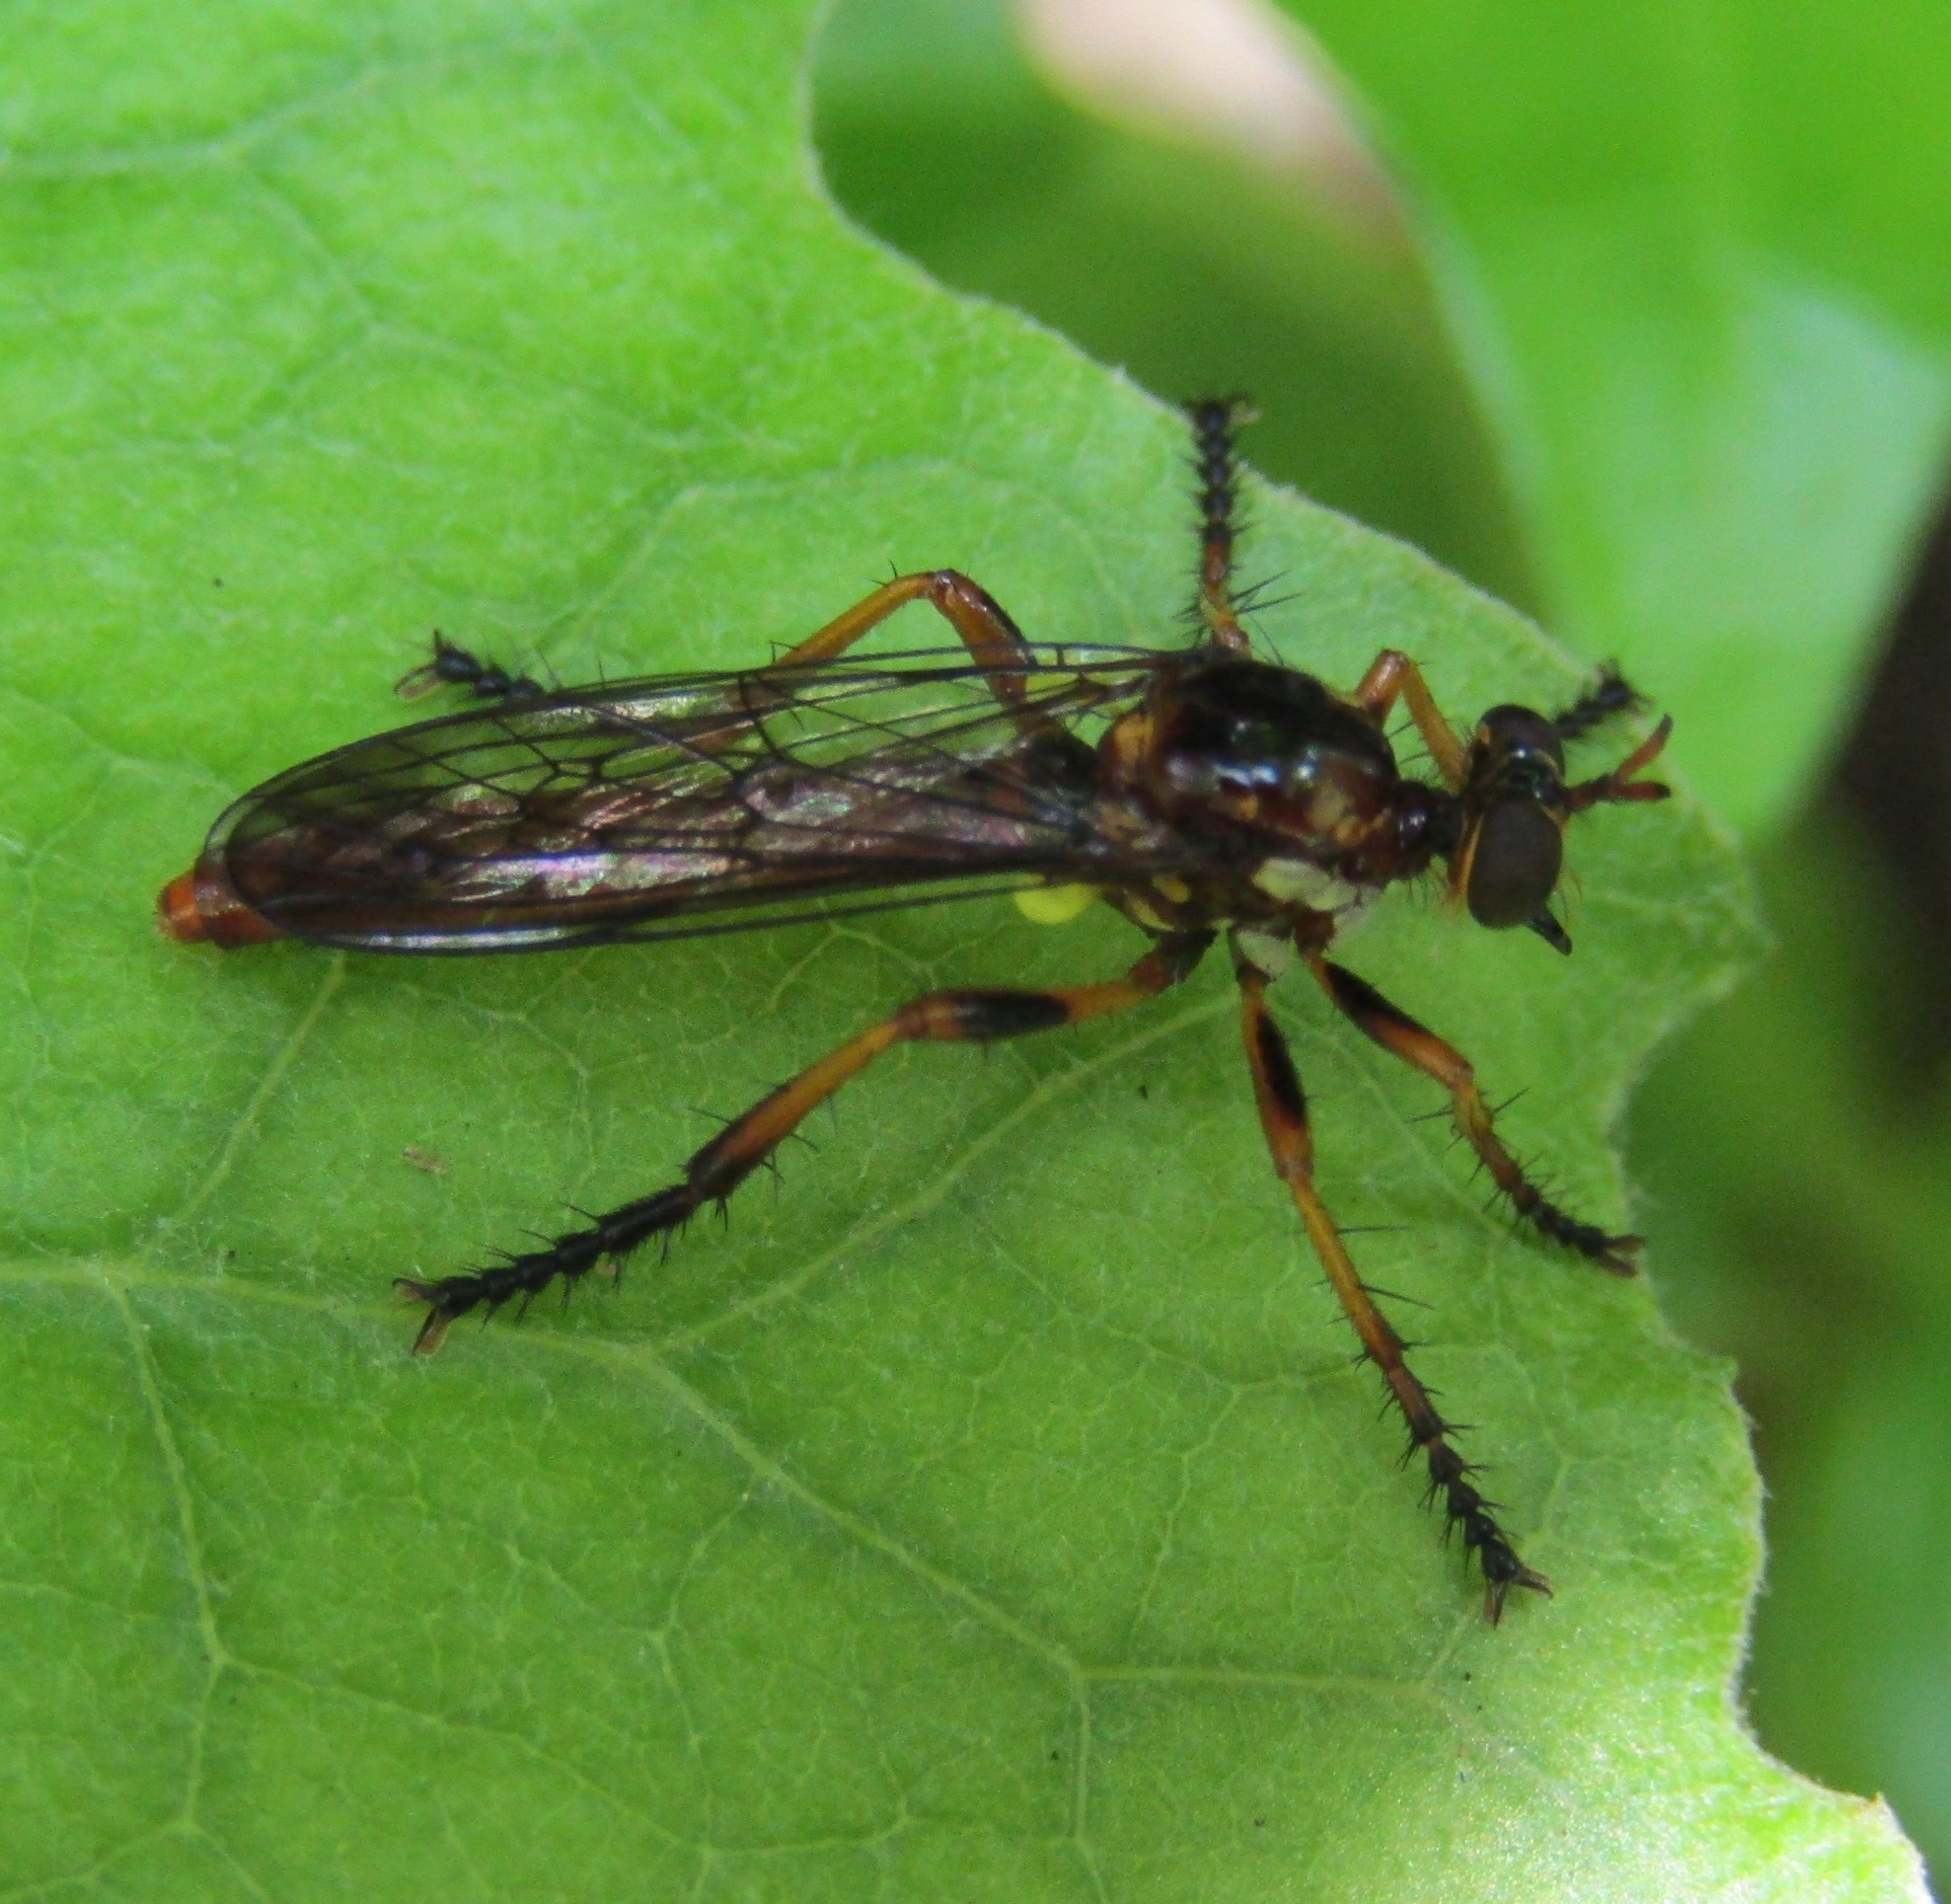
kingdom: Animalia
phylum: Arthropoda
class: Insecta
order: Diptera
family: Asilidae
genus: Saropogon
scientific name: Saropogon fascipes
